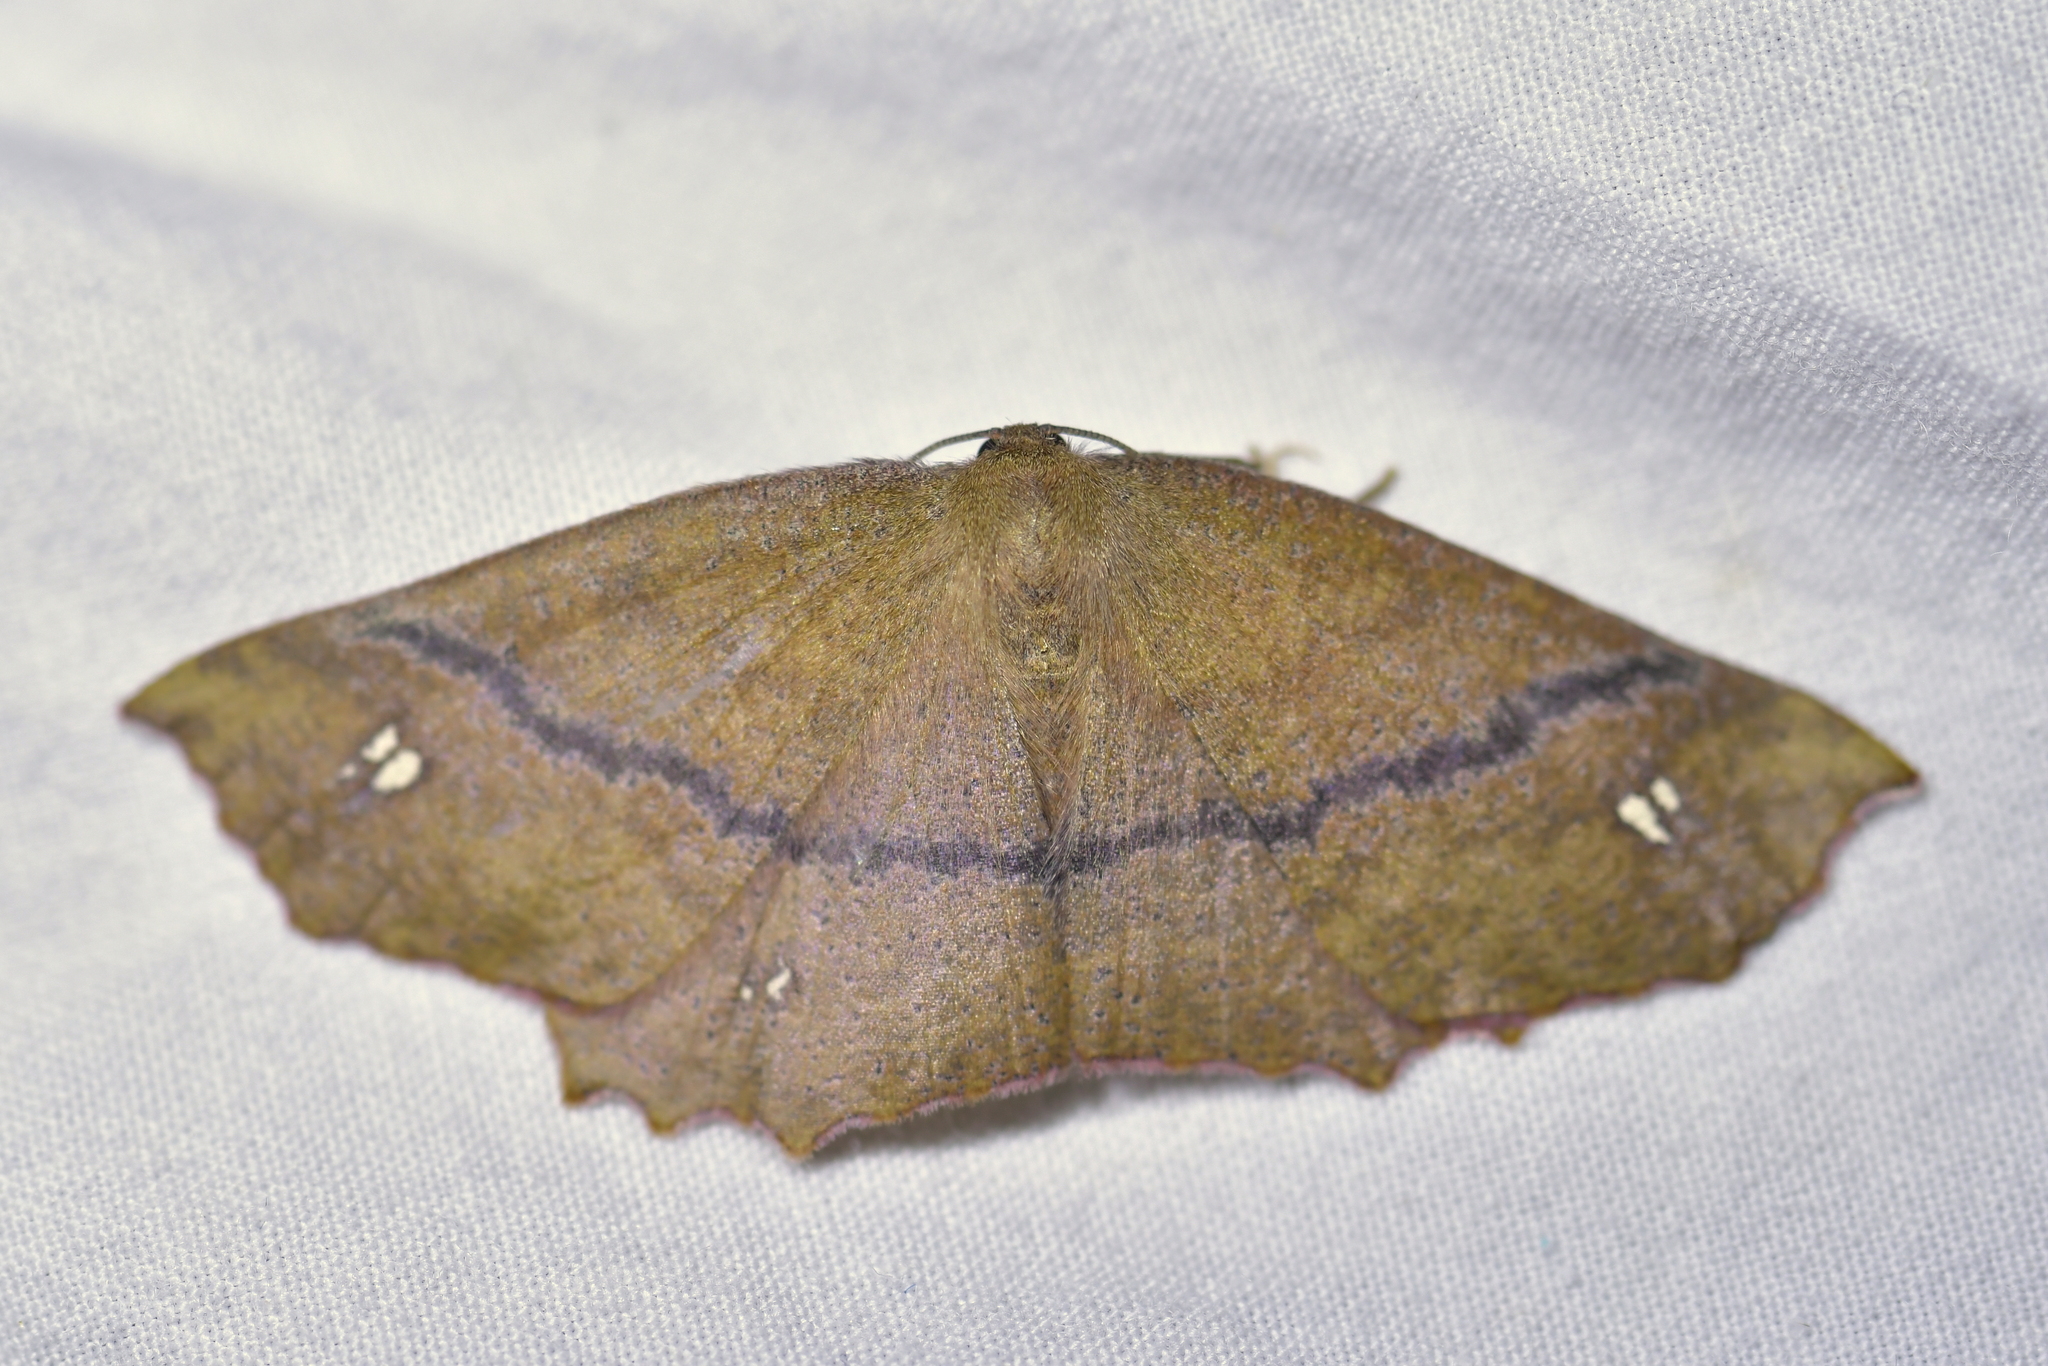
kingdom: Animalia
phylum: Arthropoda
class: Insecta
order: Lepidoptera
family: Geometridae
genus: Xyridacma
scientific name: Xyridacma ustaria
